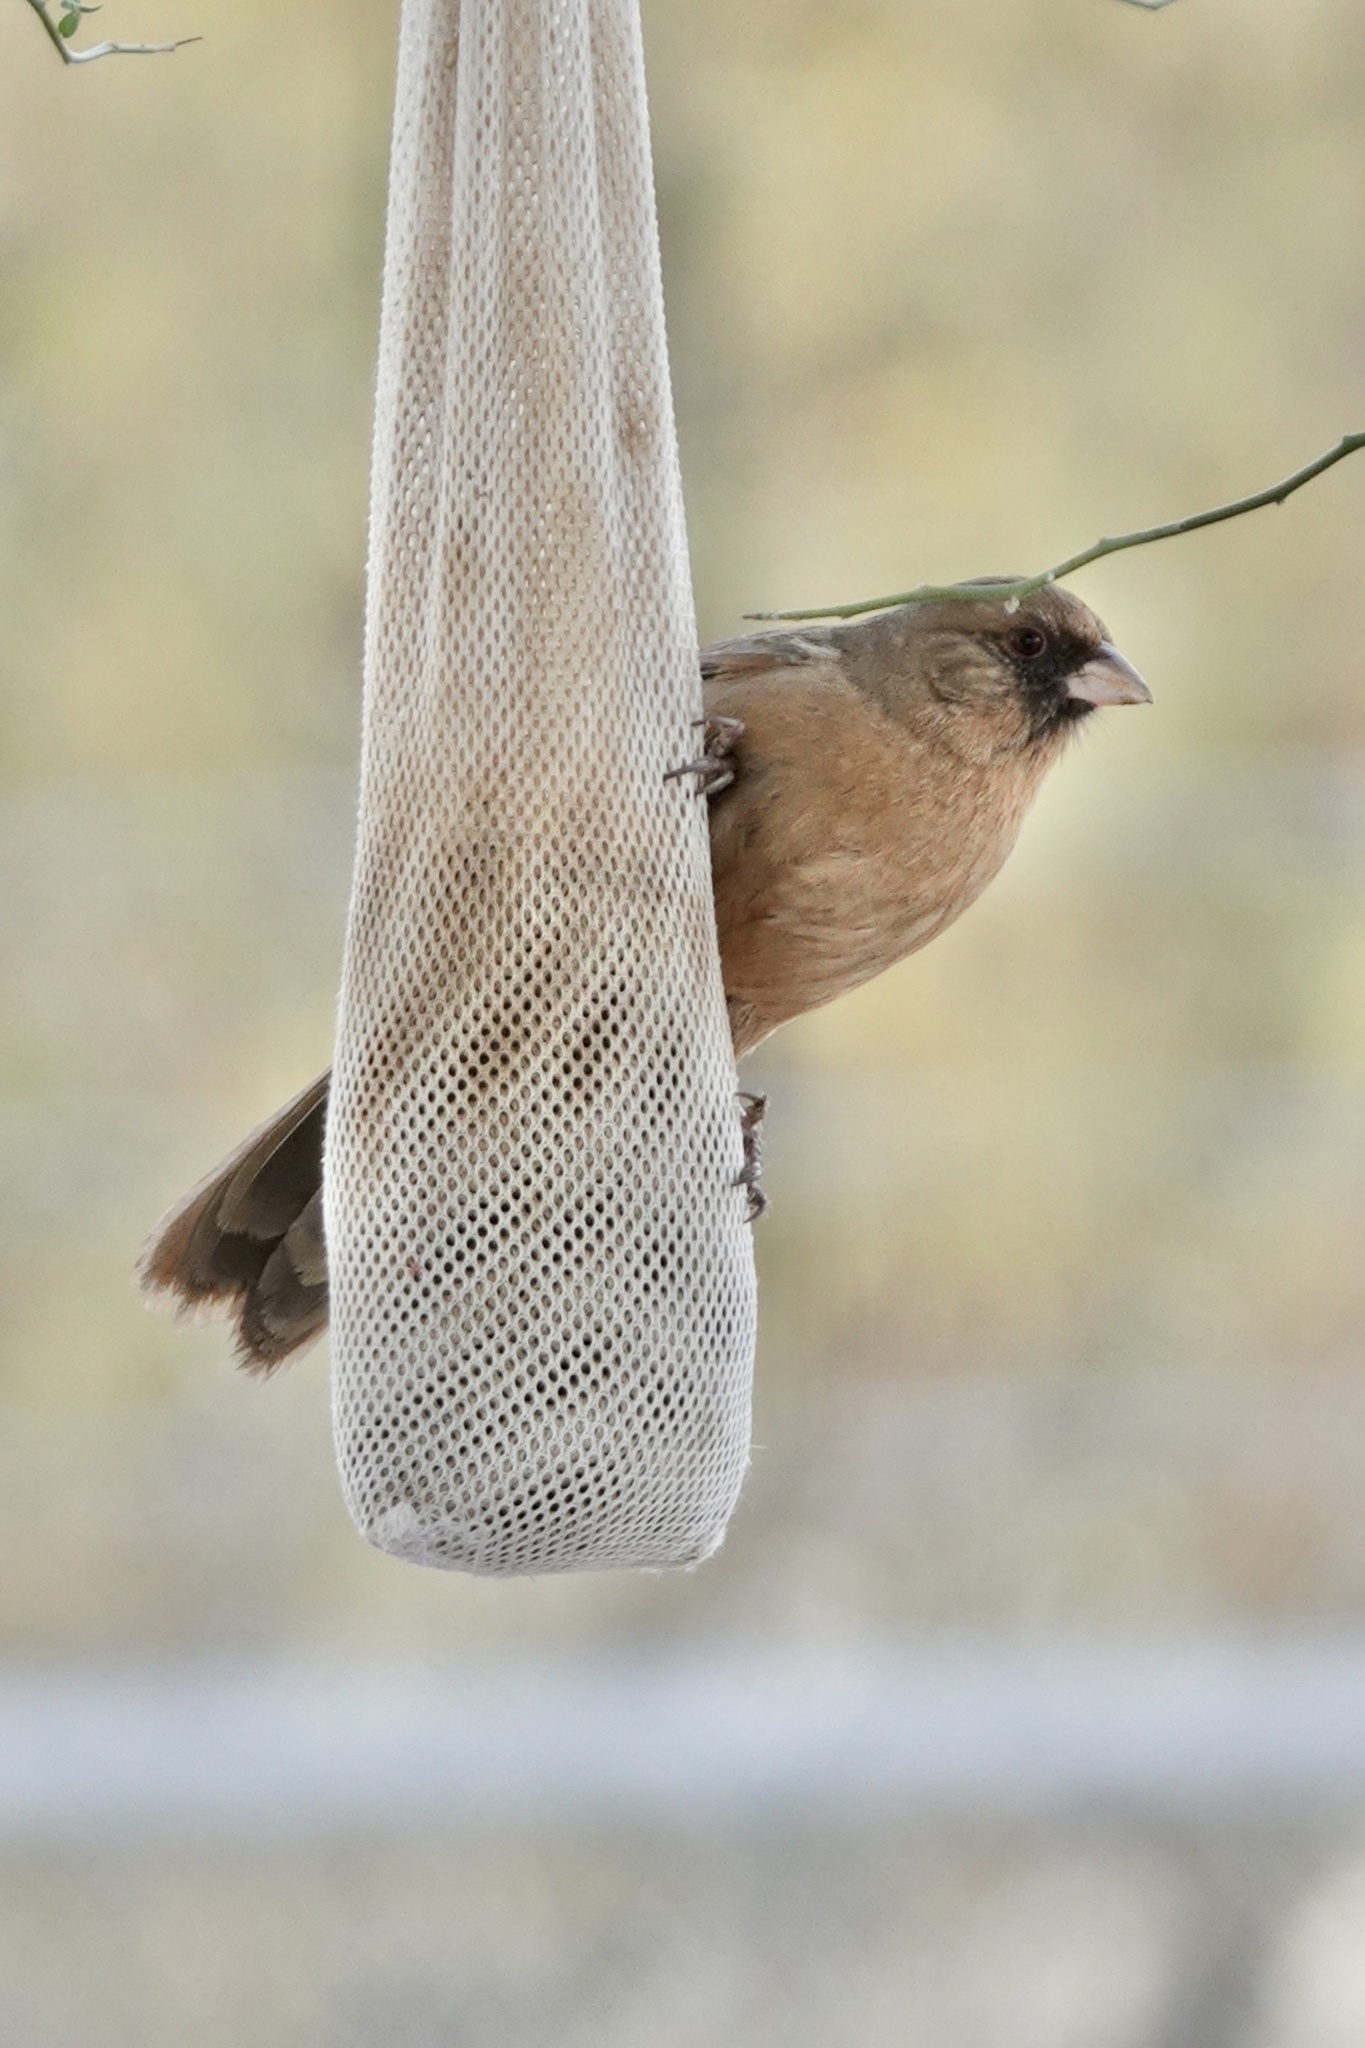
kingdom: Animalia
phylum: Chordata
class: Aves
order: Passeriformes
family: Passerellidae
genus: Melozone
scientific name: Melozone aberti
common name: Abert's towhee
